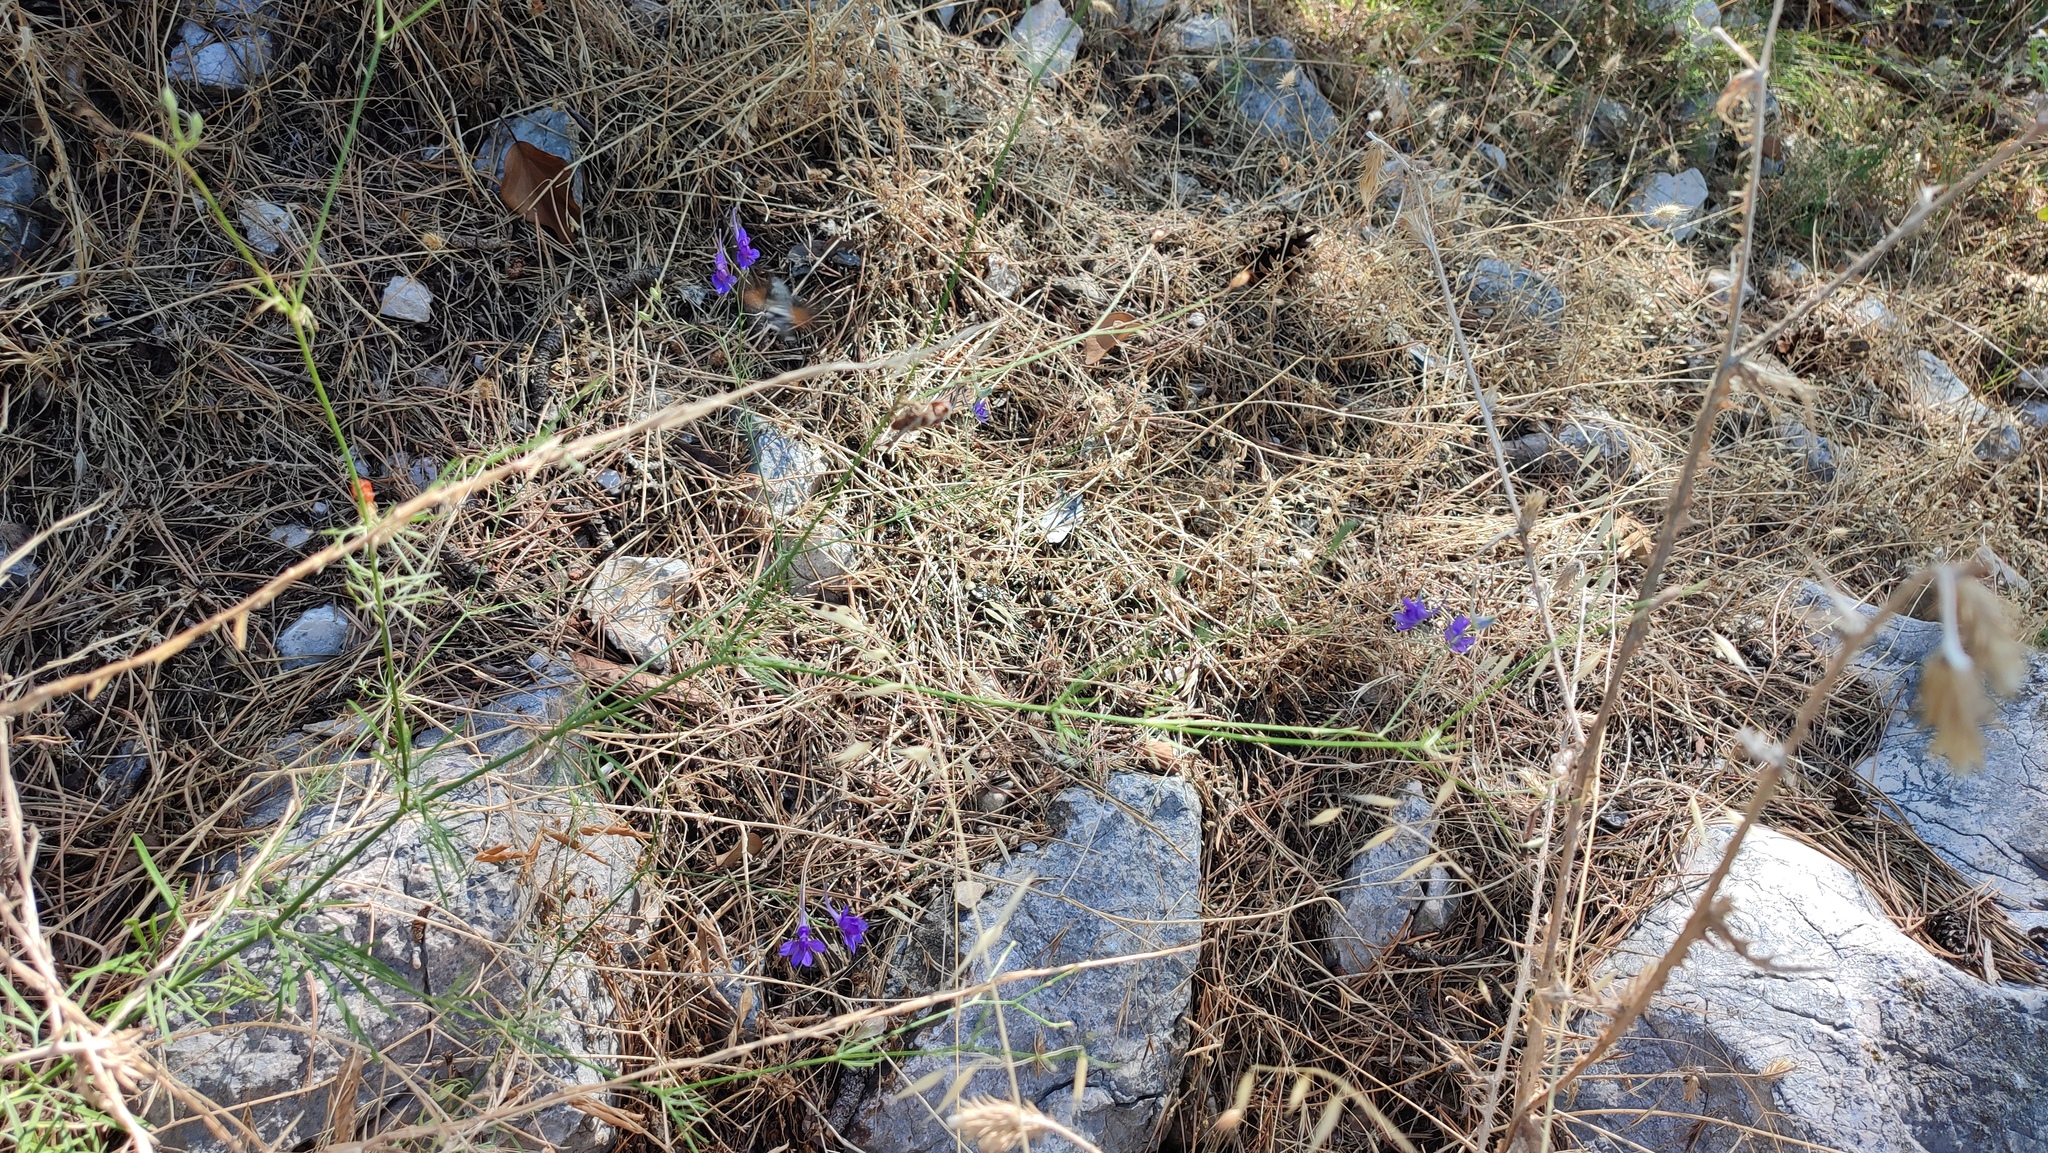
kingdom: Plantae
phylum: Tracheophyta
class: Magnoliopsida
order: Ranunculales
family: Ranunculaceae
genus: Delphinium
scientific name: Delphinium consolida
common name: Branching larkspur
